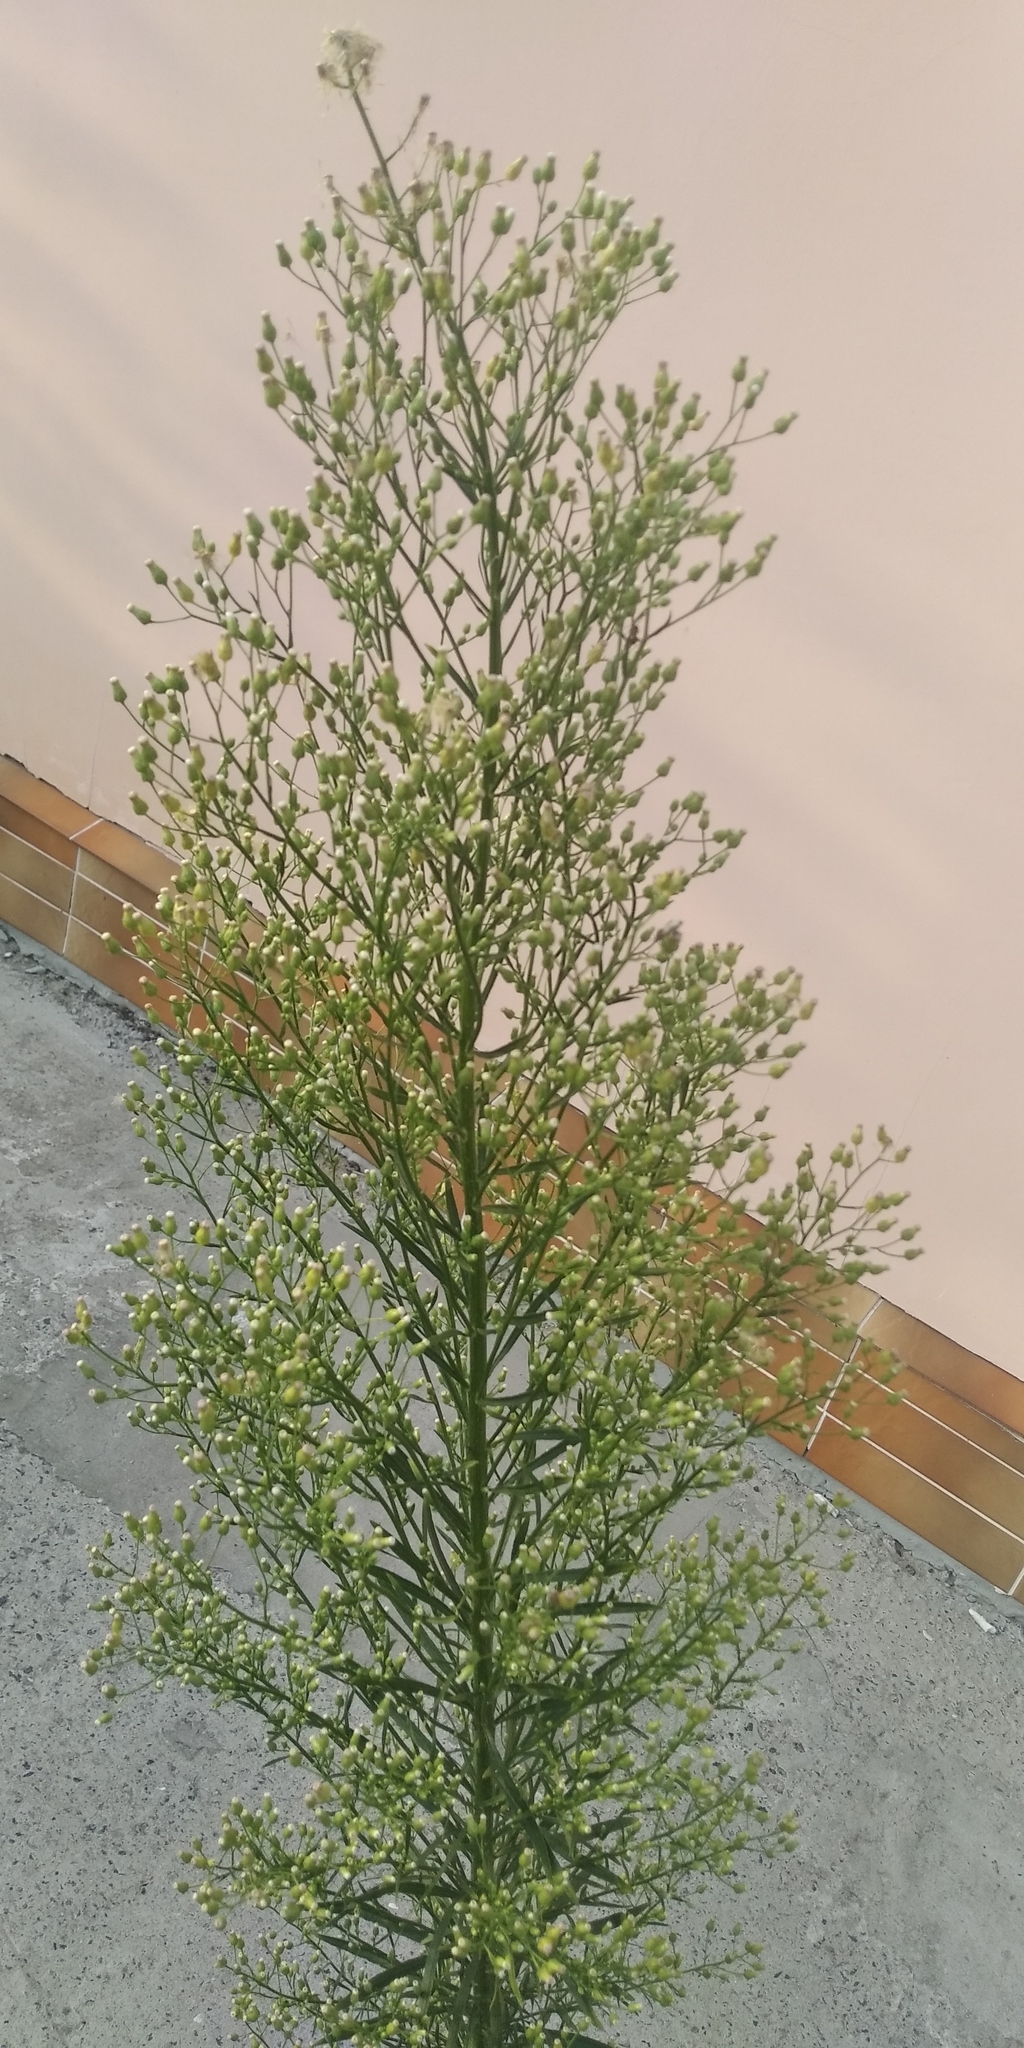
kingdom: Plantae
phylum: Tracheophyta
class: Magnoliopsida
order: Asterales
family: Asteraceae
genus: Erigeron
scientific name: Erigeron canadensis
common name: Canadian fleabane
